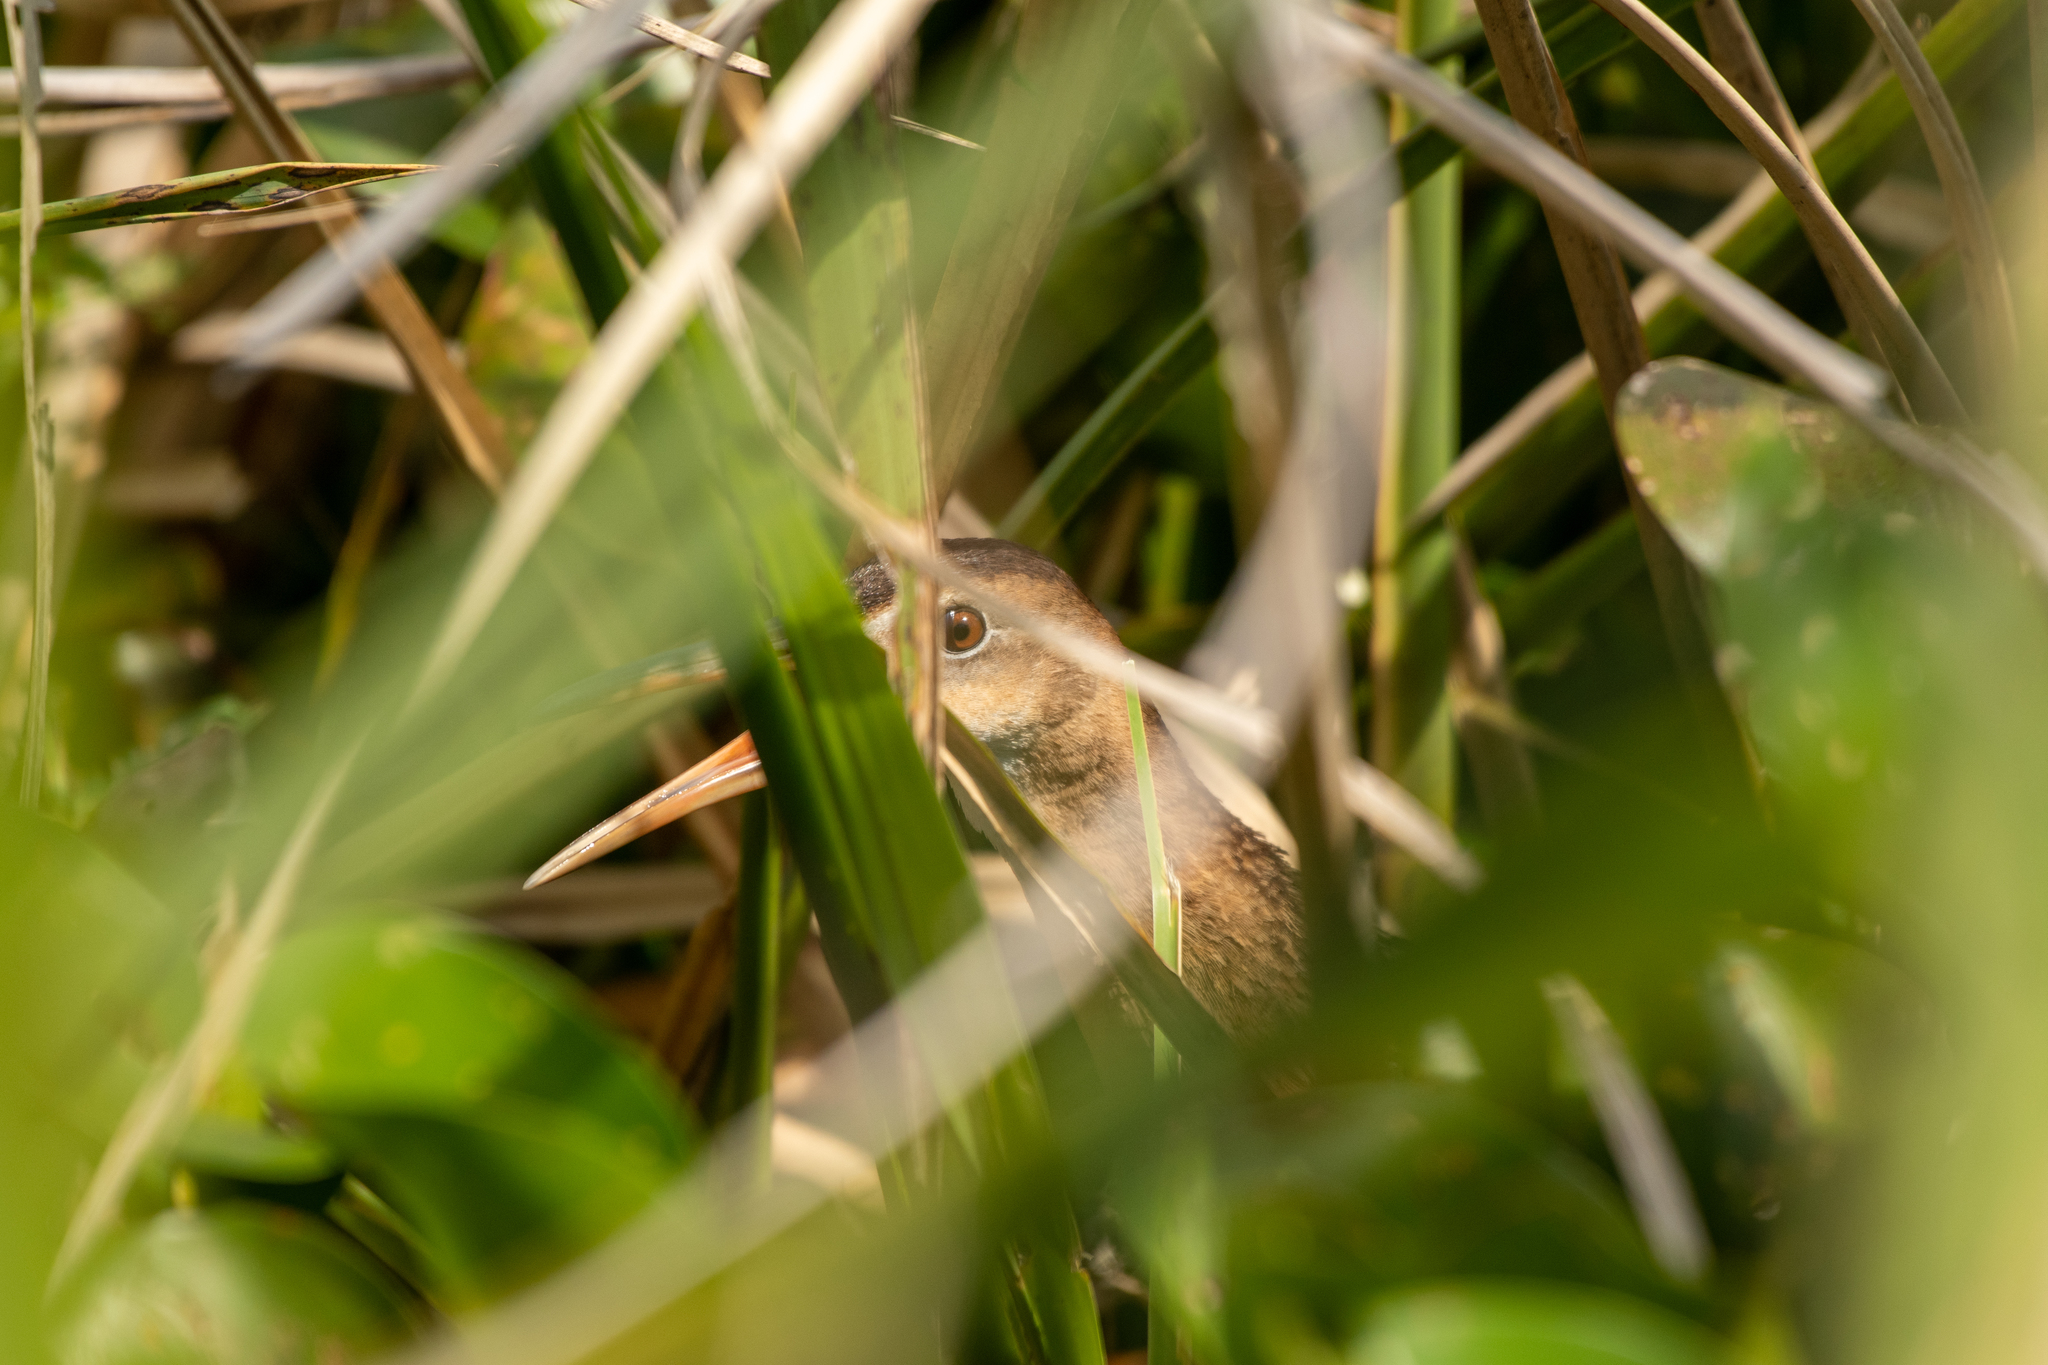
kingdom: Animalia
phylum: Chordata
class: Aves
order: Gruiformes
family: Rallidae
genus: Rallus
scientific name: Rallus elegans
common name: King rail
